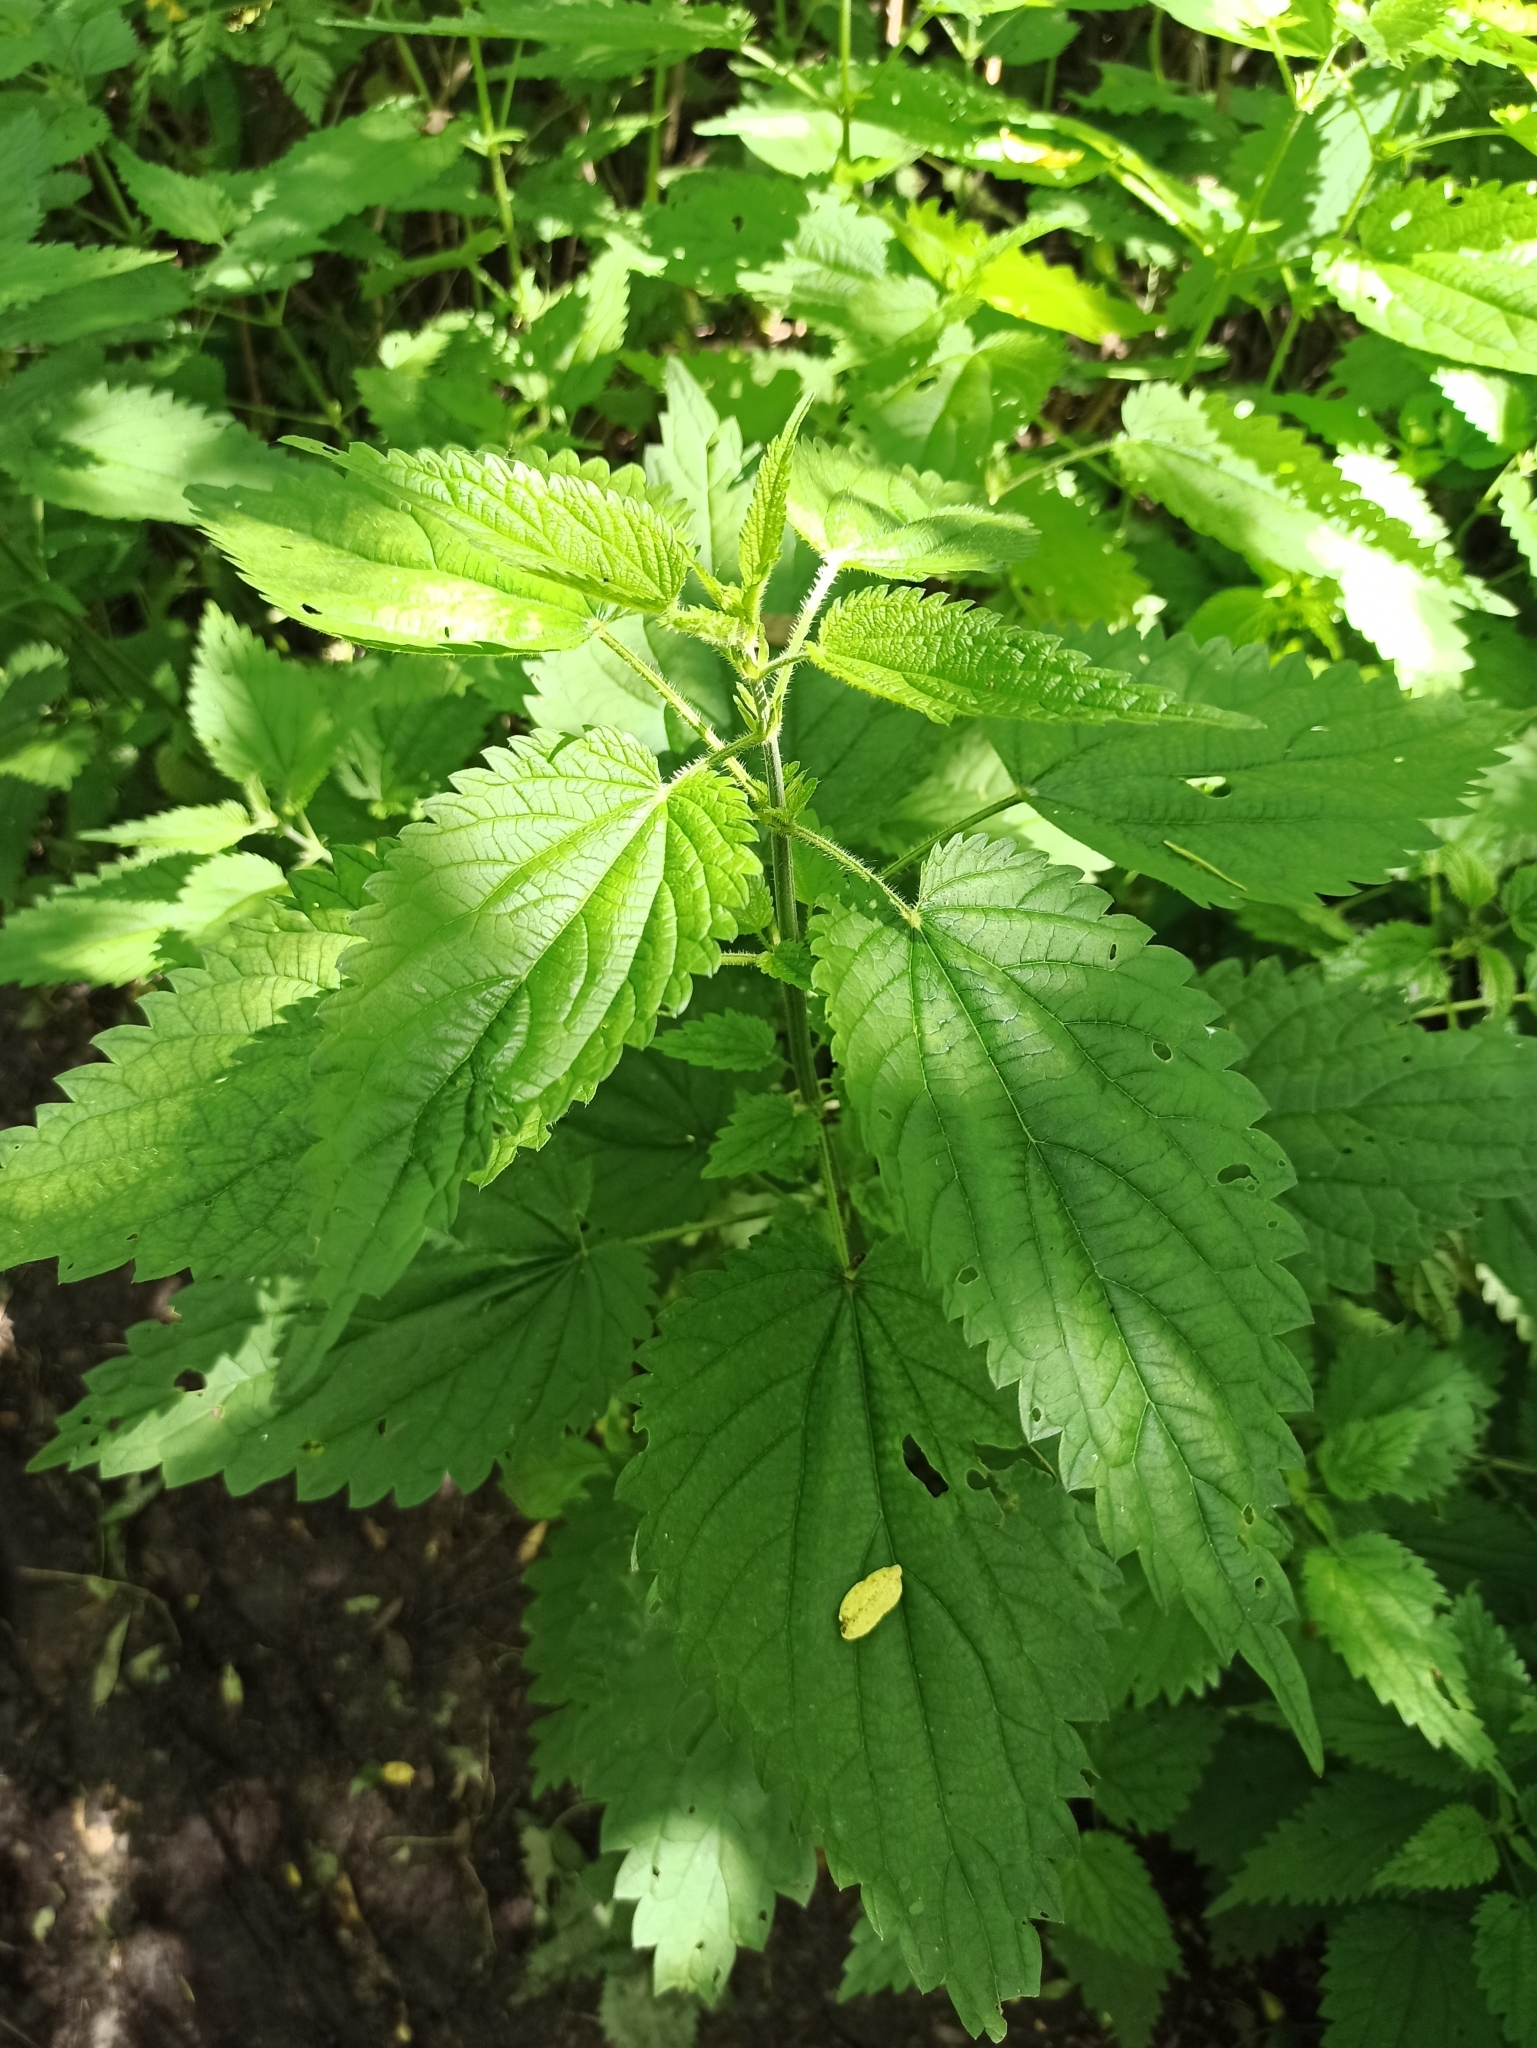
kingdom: Plantae
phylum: Tracheophyta
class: Magnoliopsida
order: Rosales
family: Urticaceae
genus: Urtica
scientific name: Urtica dioica
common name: Common nettle
